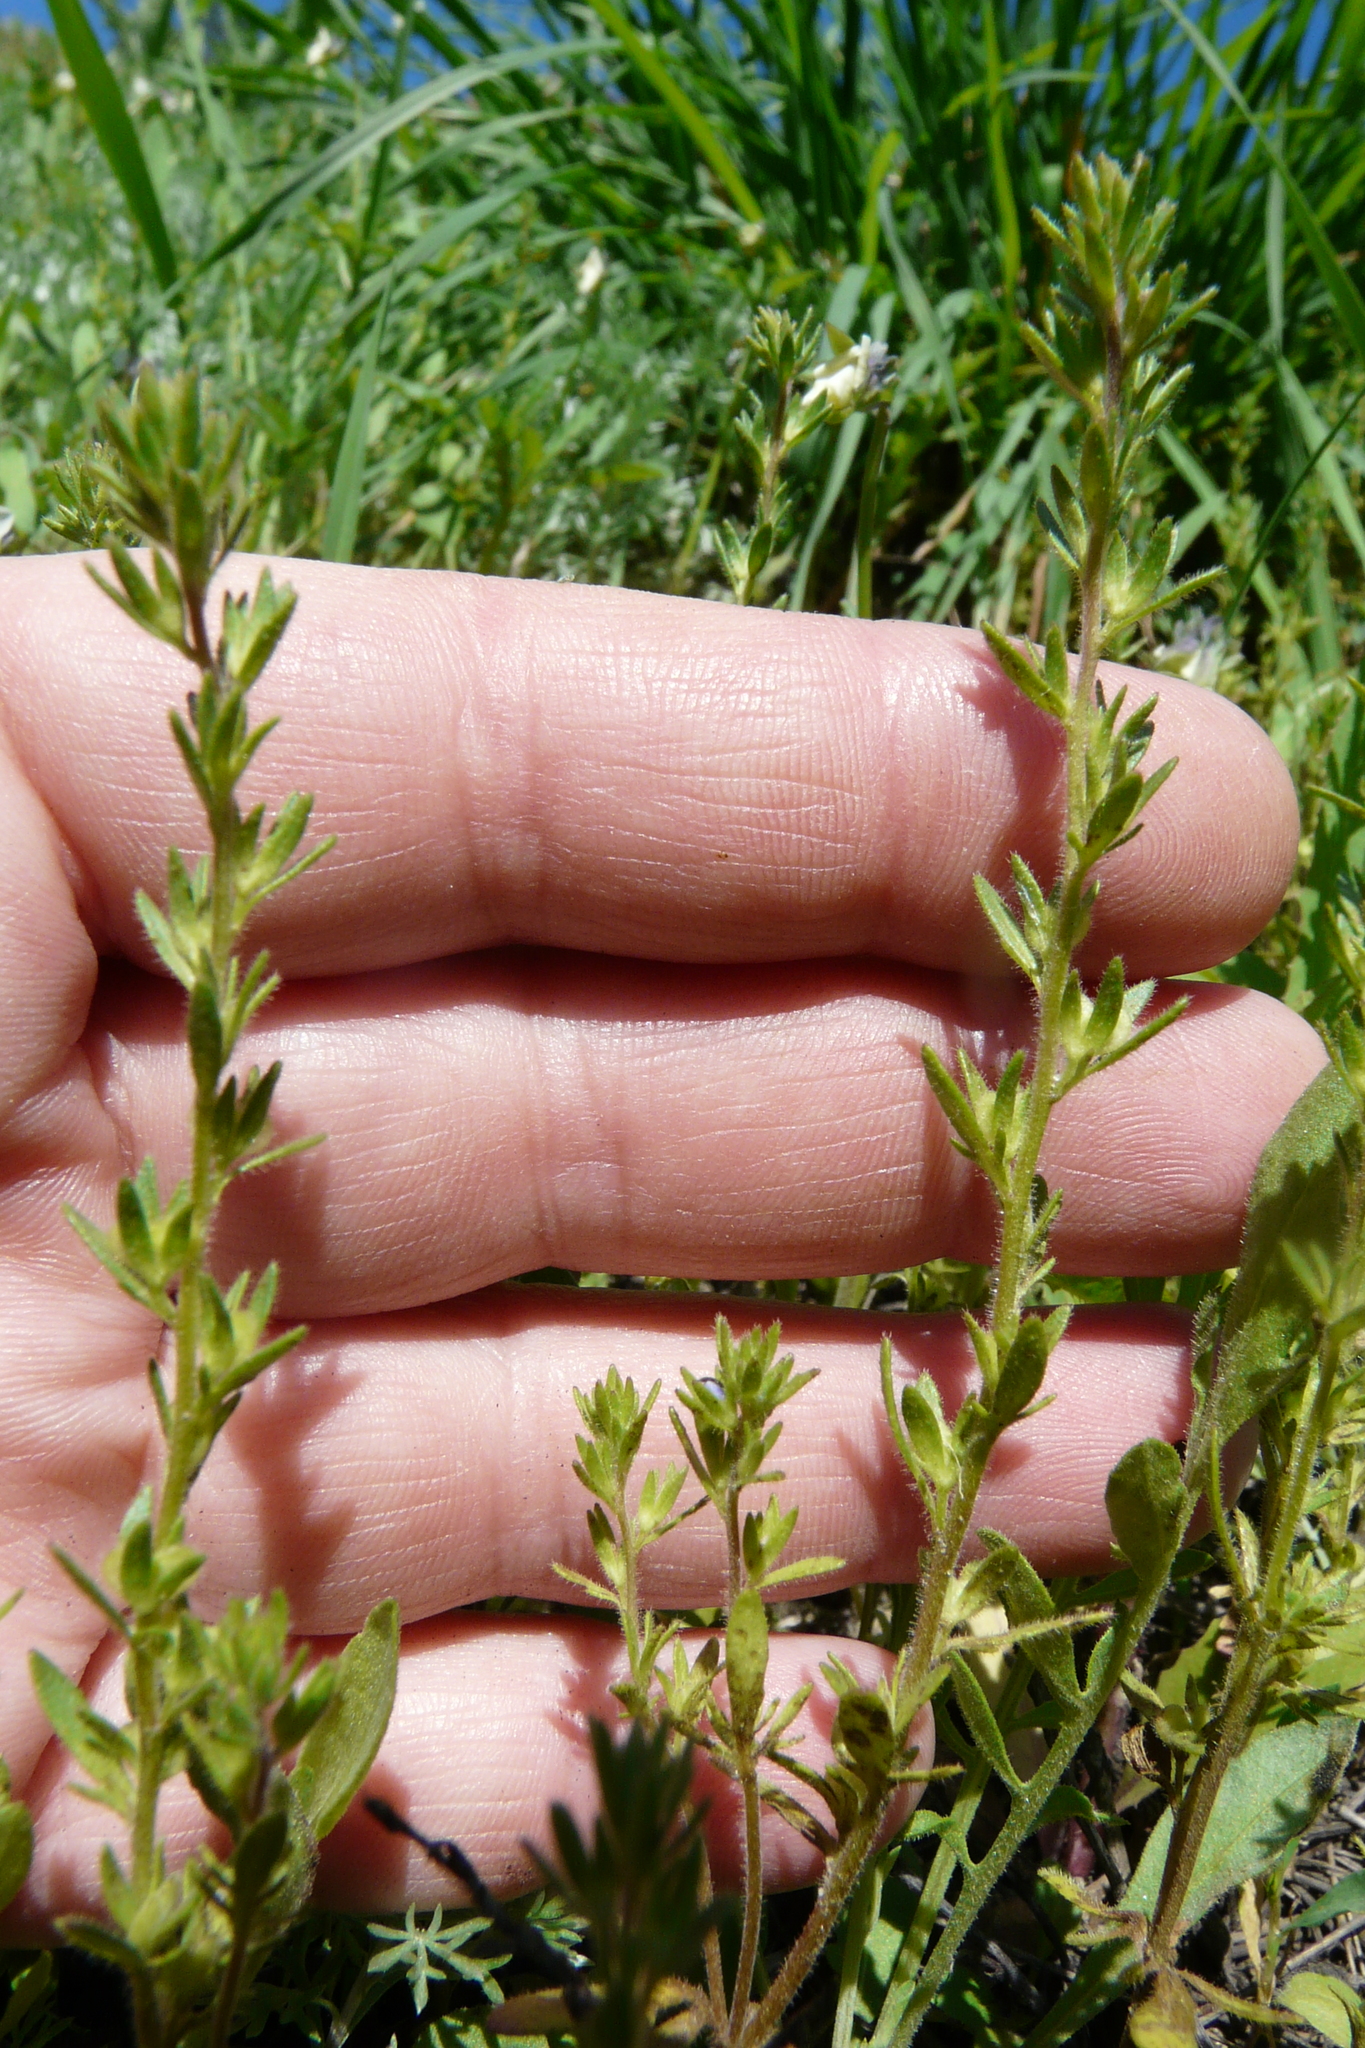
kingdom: Plantae
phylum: Tracheophyta
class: Magnoliopsida
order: Lamiales
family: Plantaginaceae
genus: Veronica
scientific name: Veronica verna
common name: Spring speedwell
